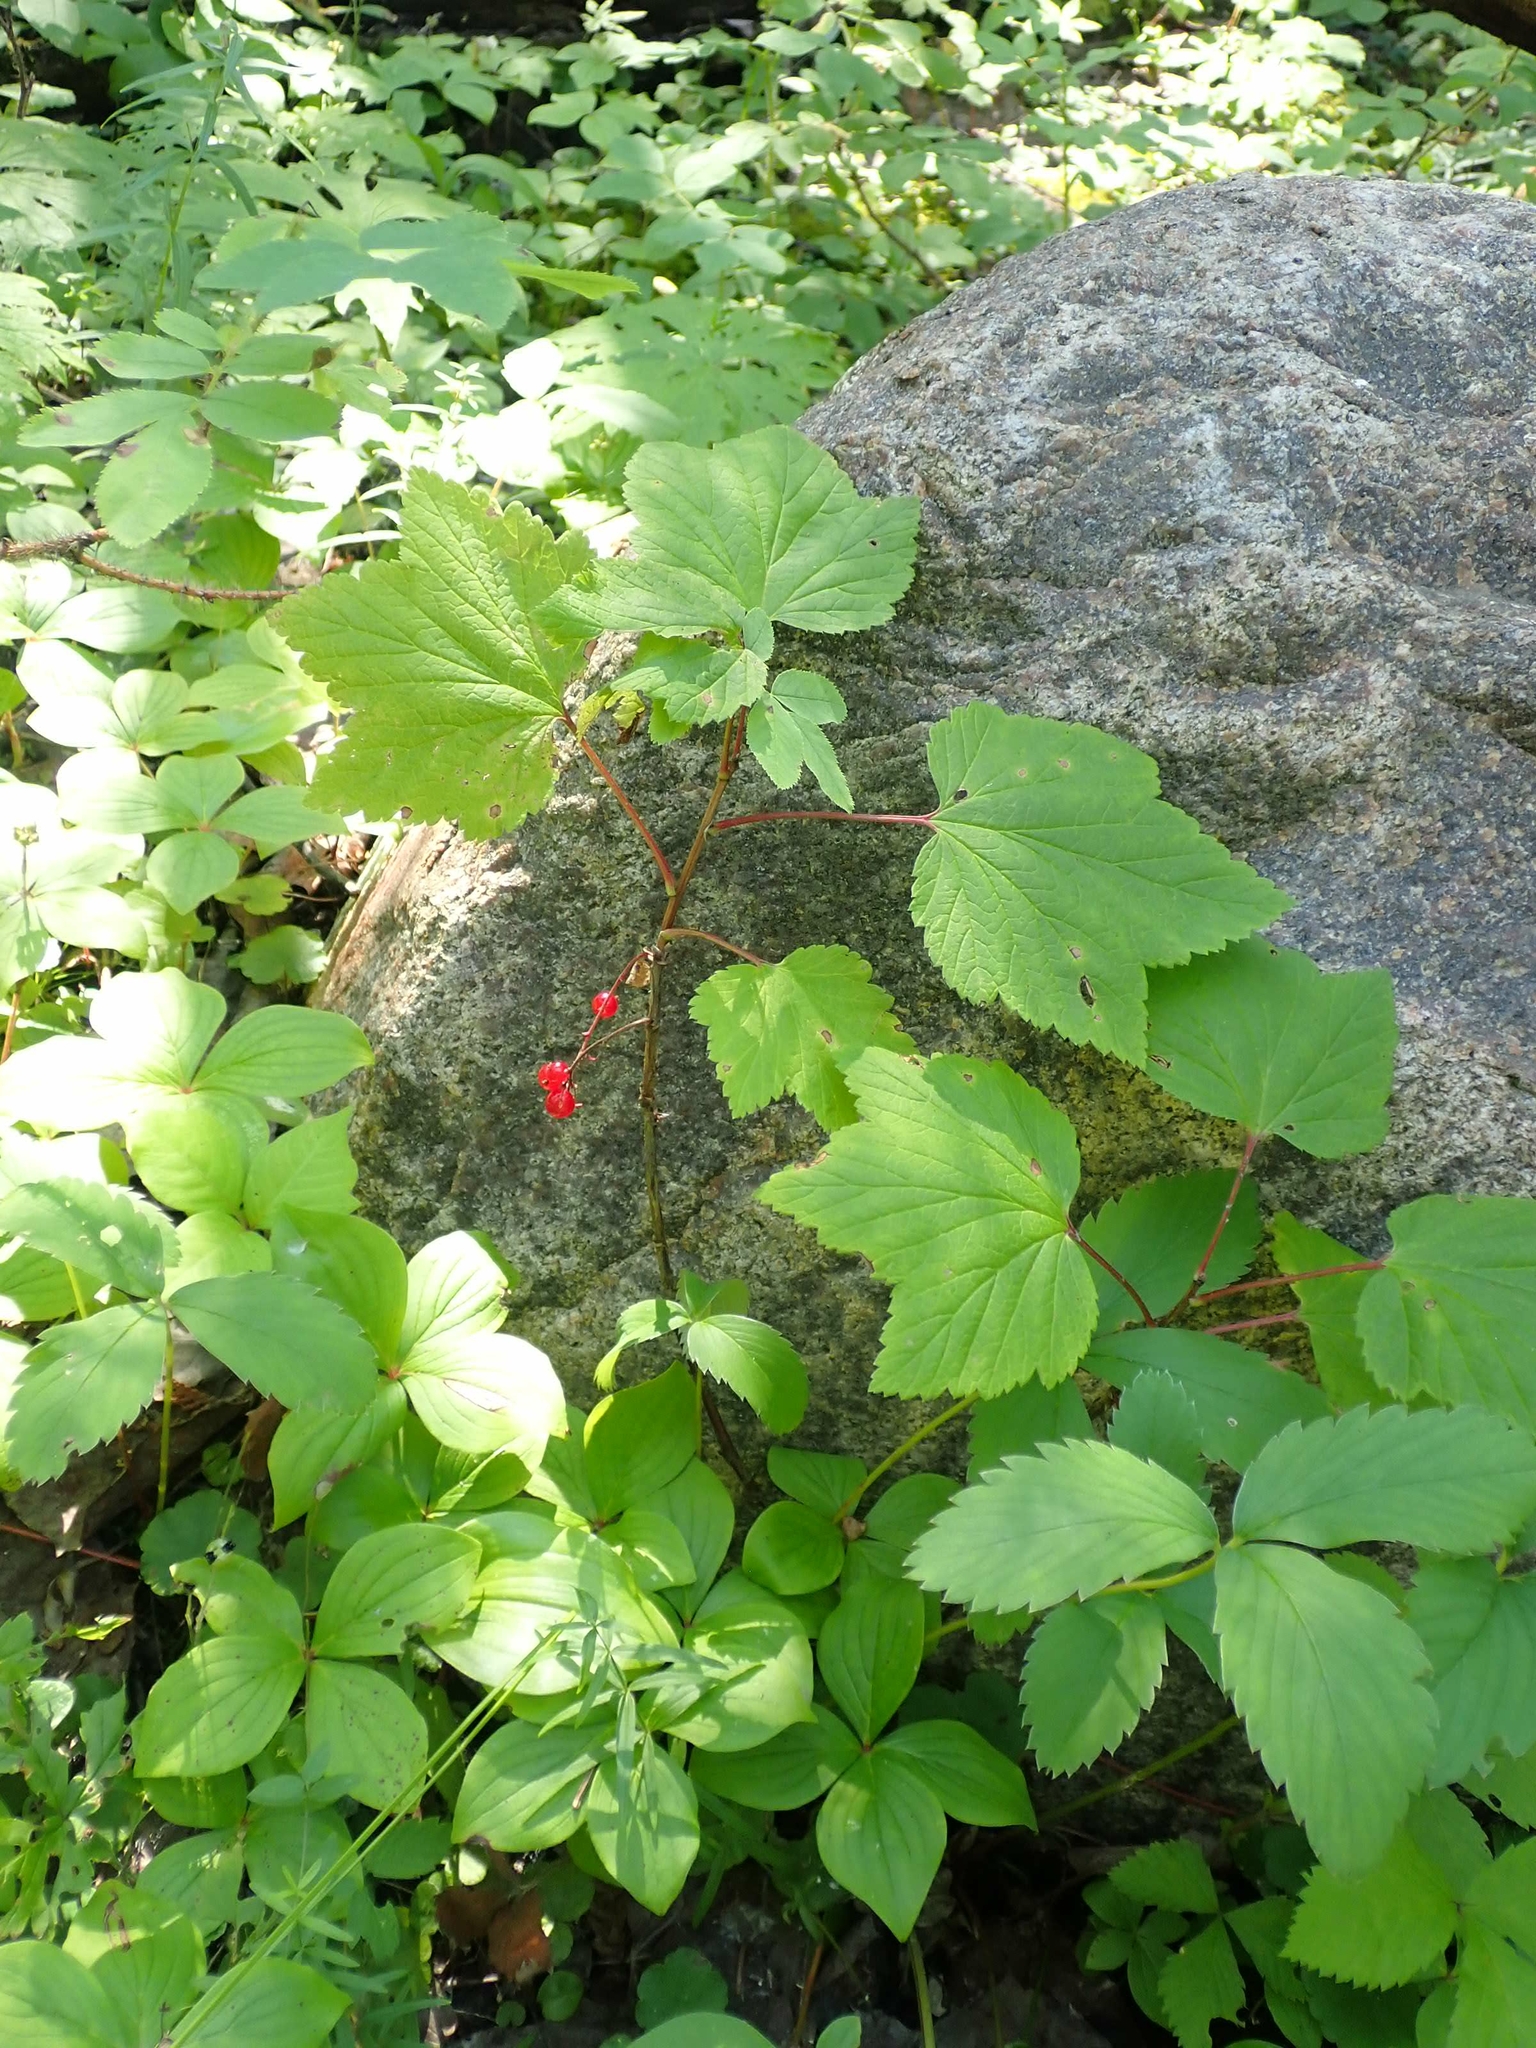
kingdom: Plantae
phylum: Tracheophyta
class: Magnoliopsida
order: Saxifragales
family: Grossulariaceae
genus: Ribes
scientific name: Ribes triste
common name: Swamp red currant
